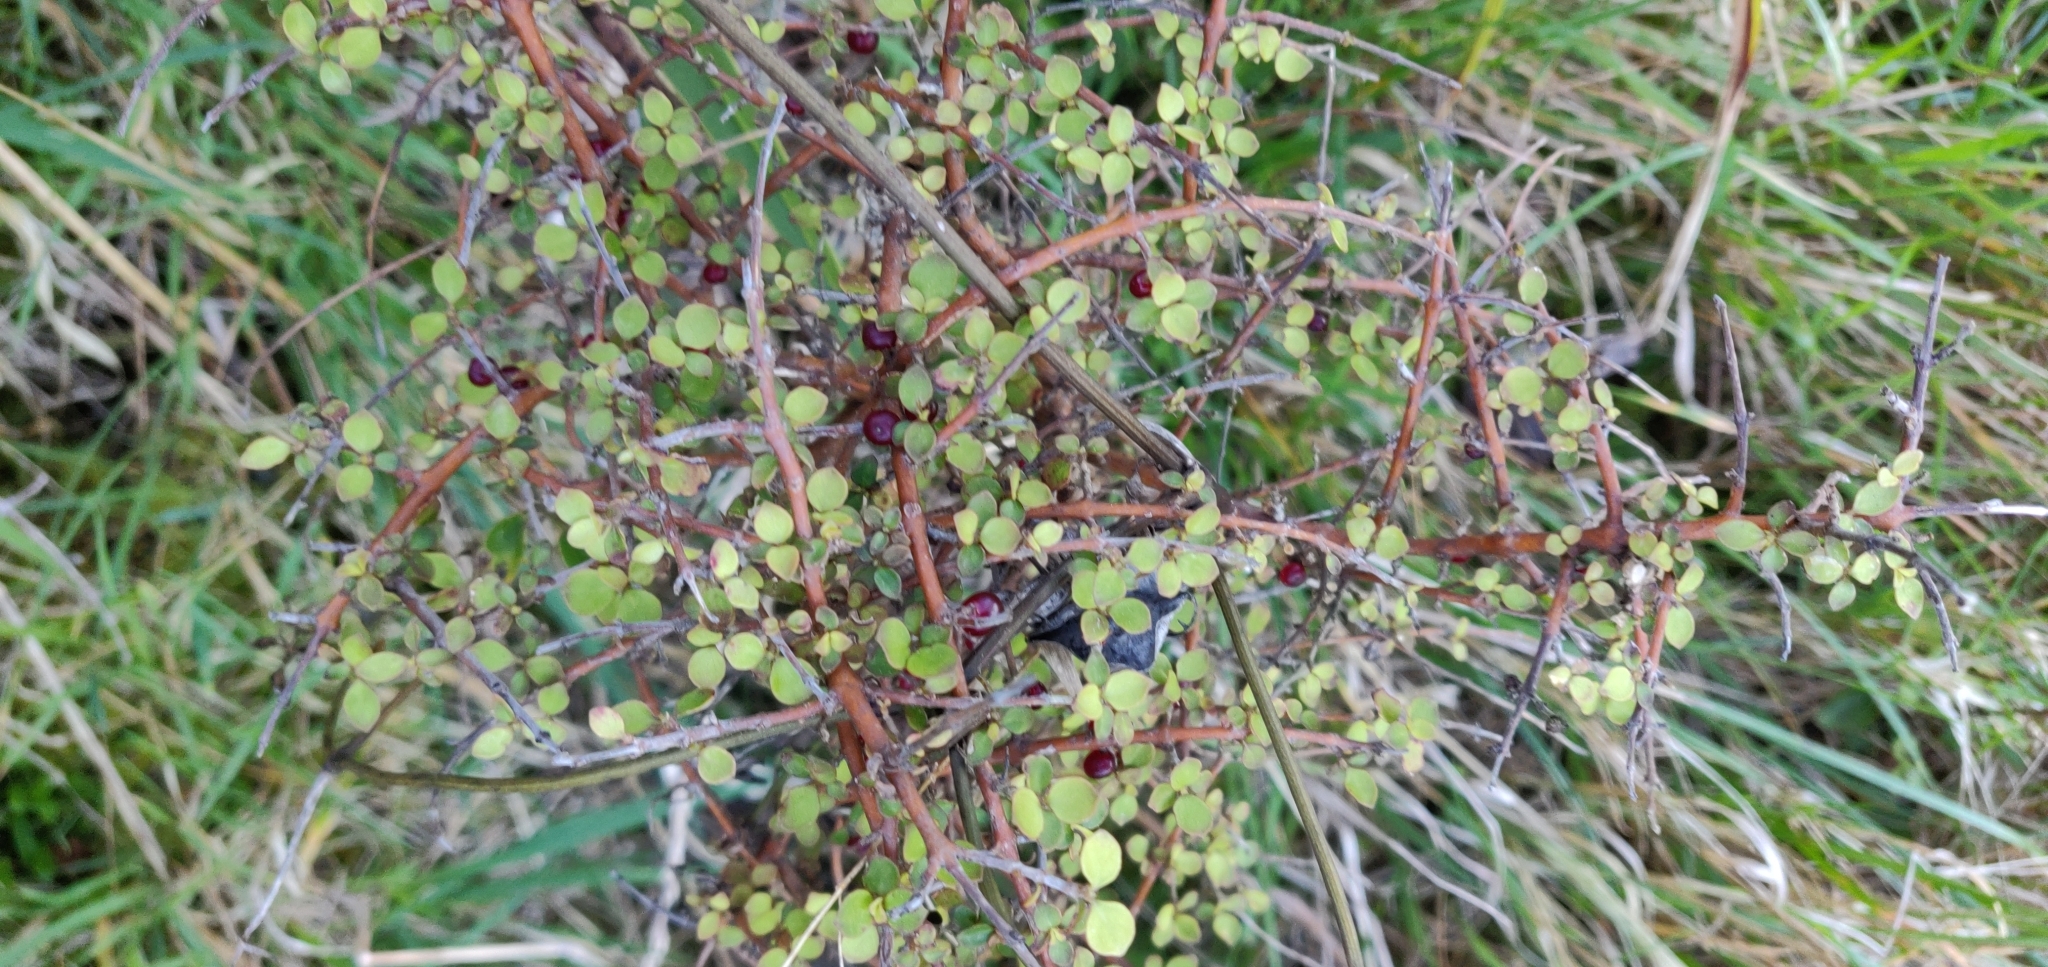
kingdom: Plantae
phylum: Tracheophyta
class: Magnoliopsida
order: Gentianales
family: Rubiaceae
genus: Coprosma
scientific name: Coprosma rhamnoides
